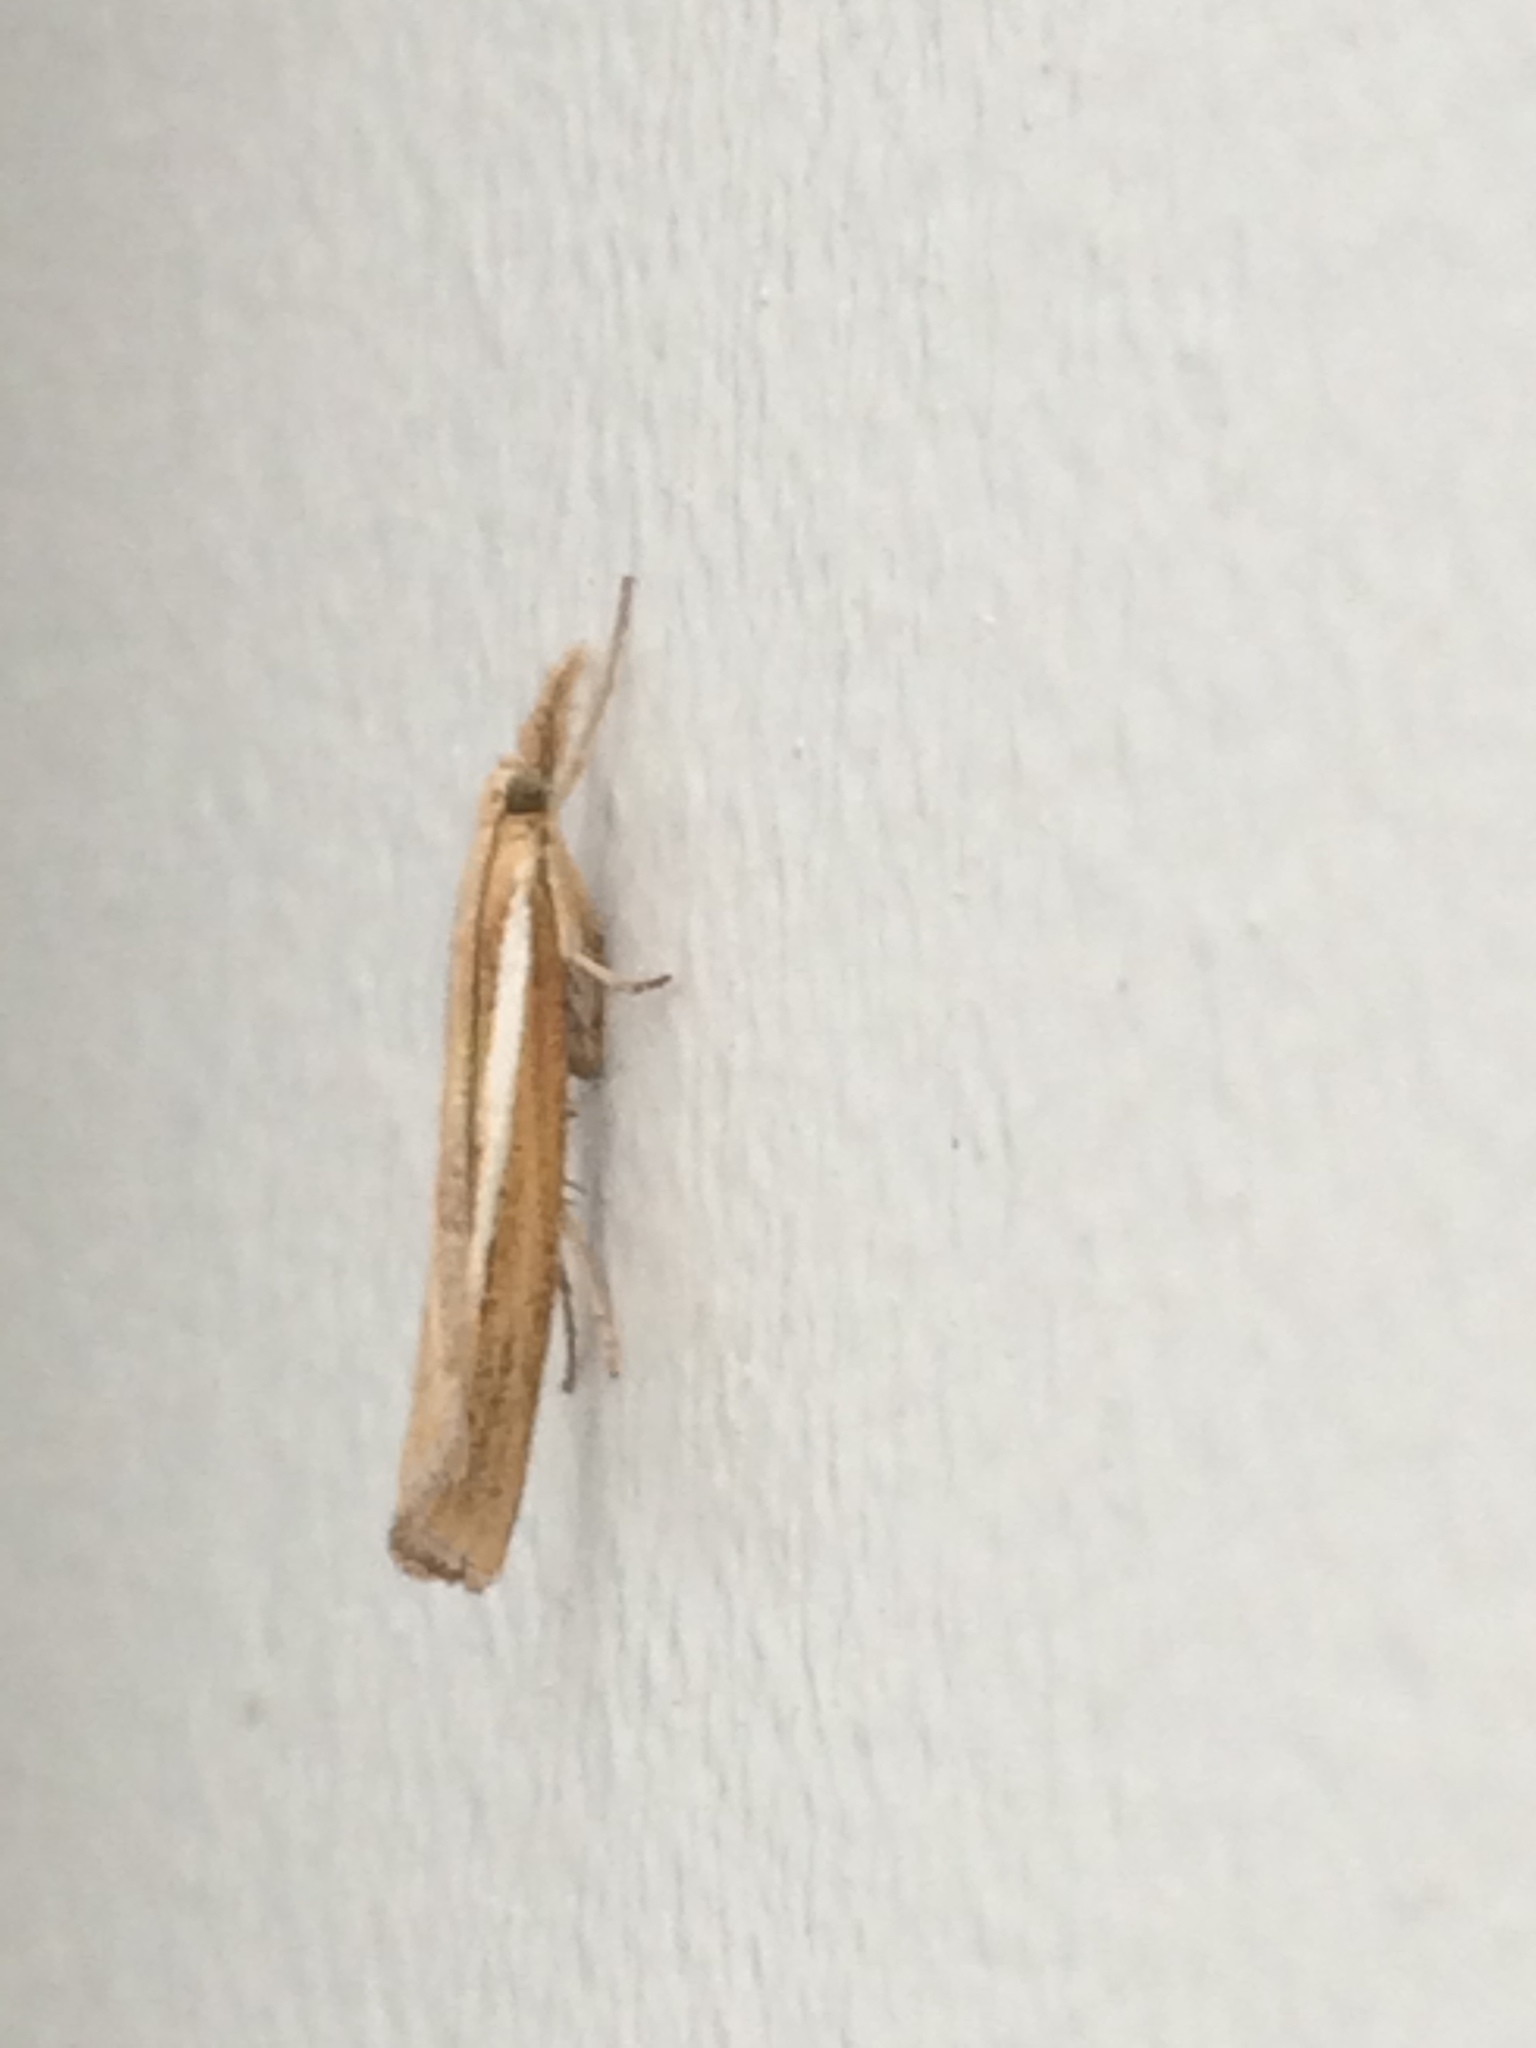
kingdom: Animalia
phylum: Arthropoda
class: Insecta
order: Lepidoptera
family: Crambidae
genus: Agriphila
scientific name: Agriphila tristellus
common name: Common grass-veneer
